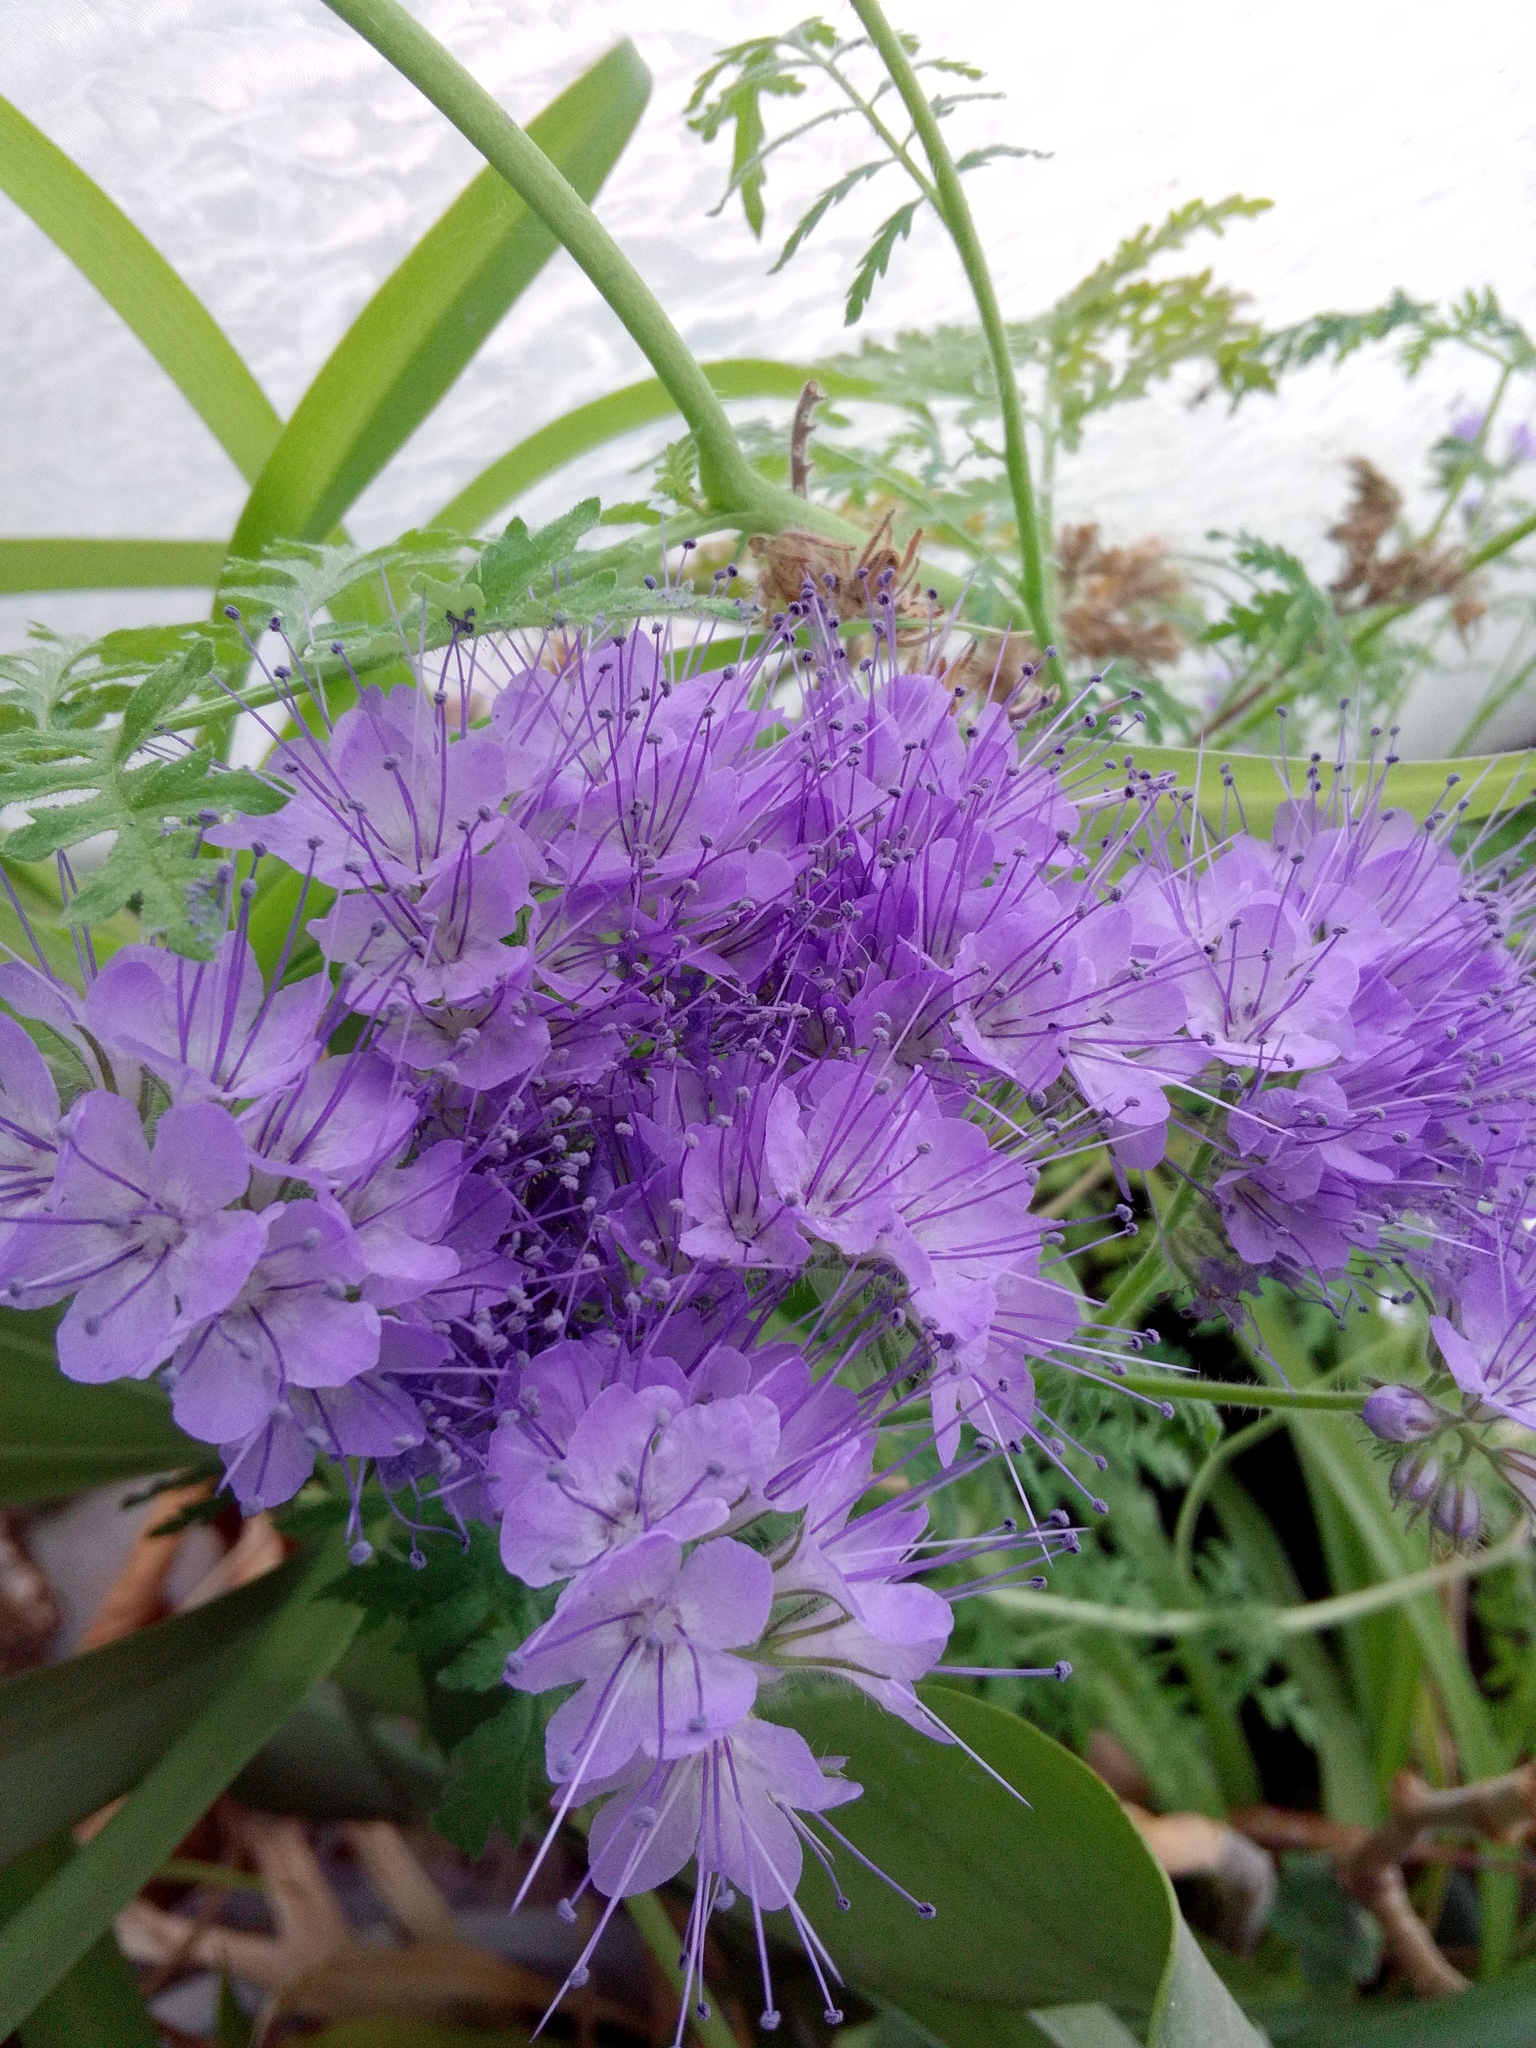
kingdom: Plantae
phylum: Tracheophyta
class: Magnoliopsida
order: Boraginales
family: Hydrophyllaceae
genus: Phacelia
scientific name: Phacelia tanacetifolia
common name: Phacelia
